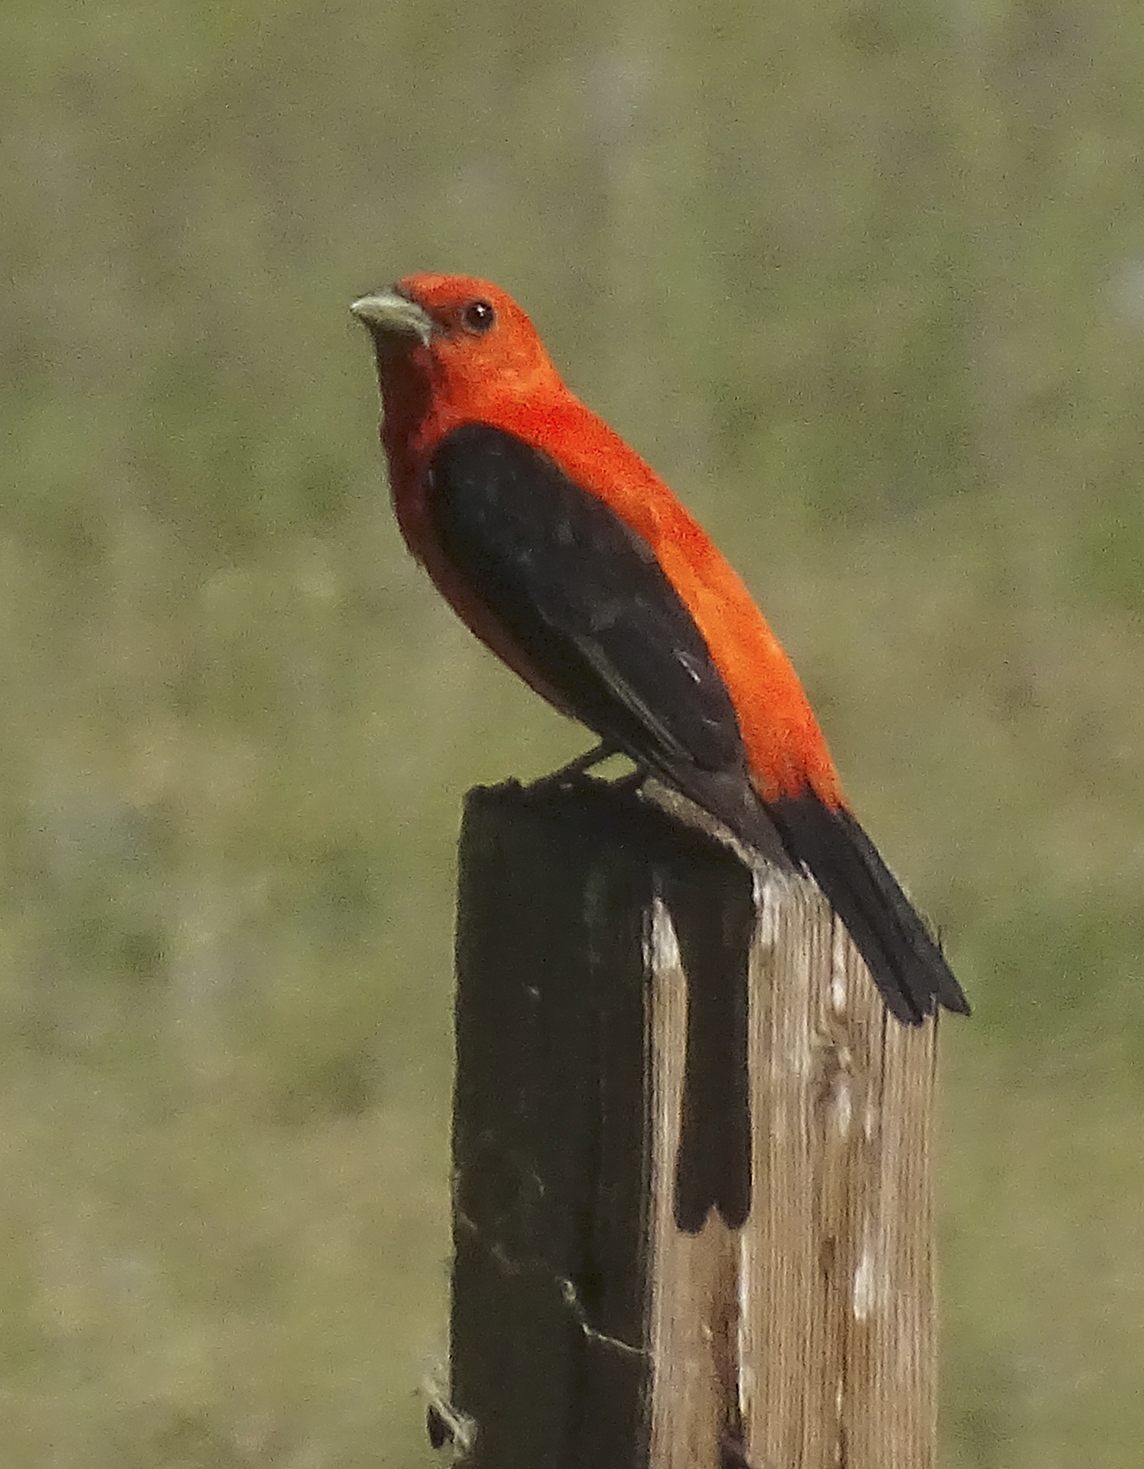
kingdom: Animalia
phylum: Chordata
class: Aves
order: Passeriformes
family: Cardinalidae
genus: Piranga
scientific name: Piranga olivacea
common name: Scarlet tanager
